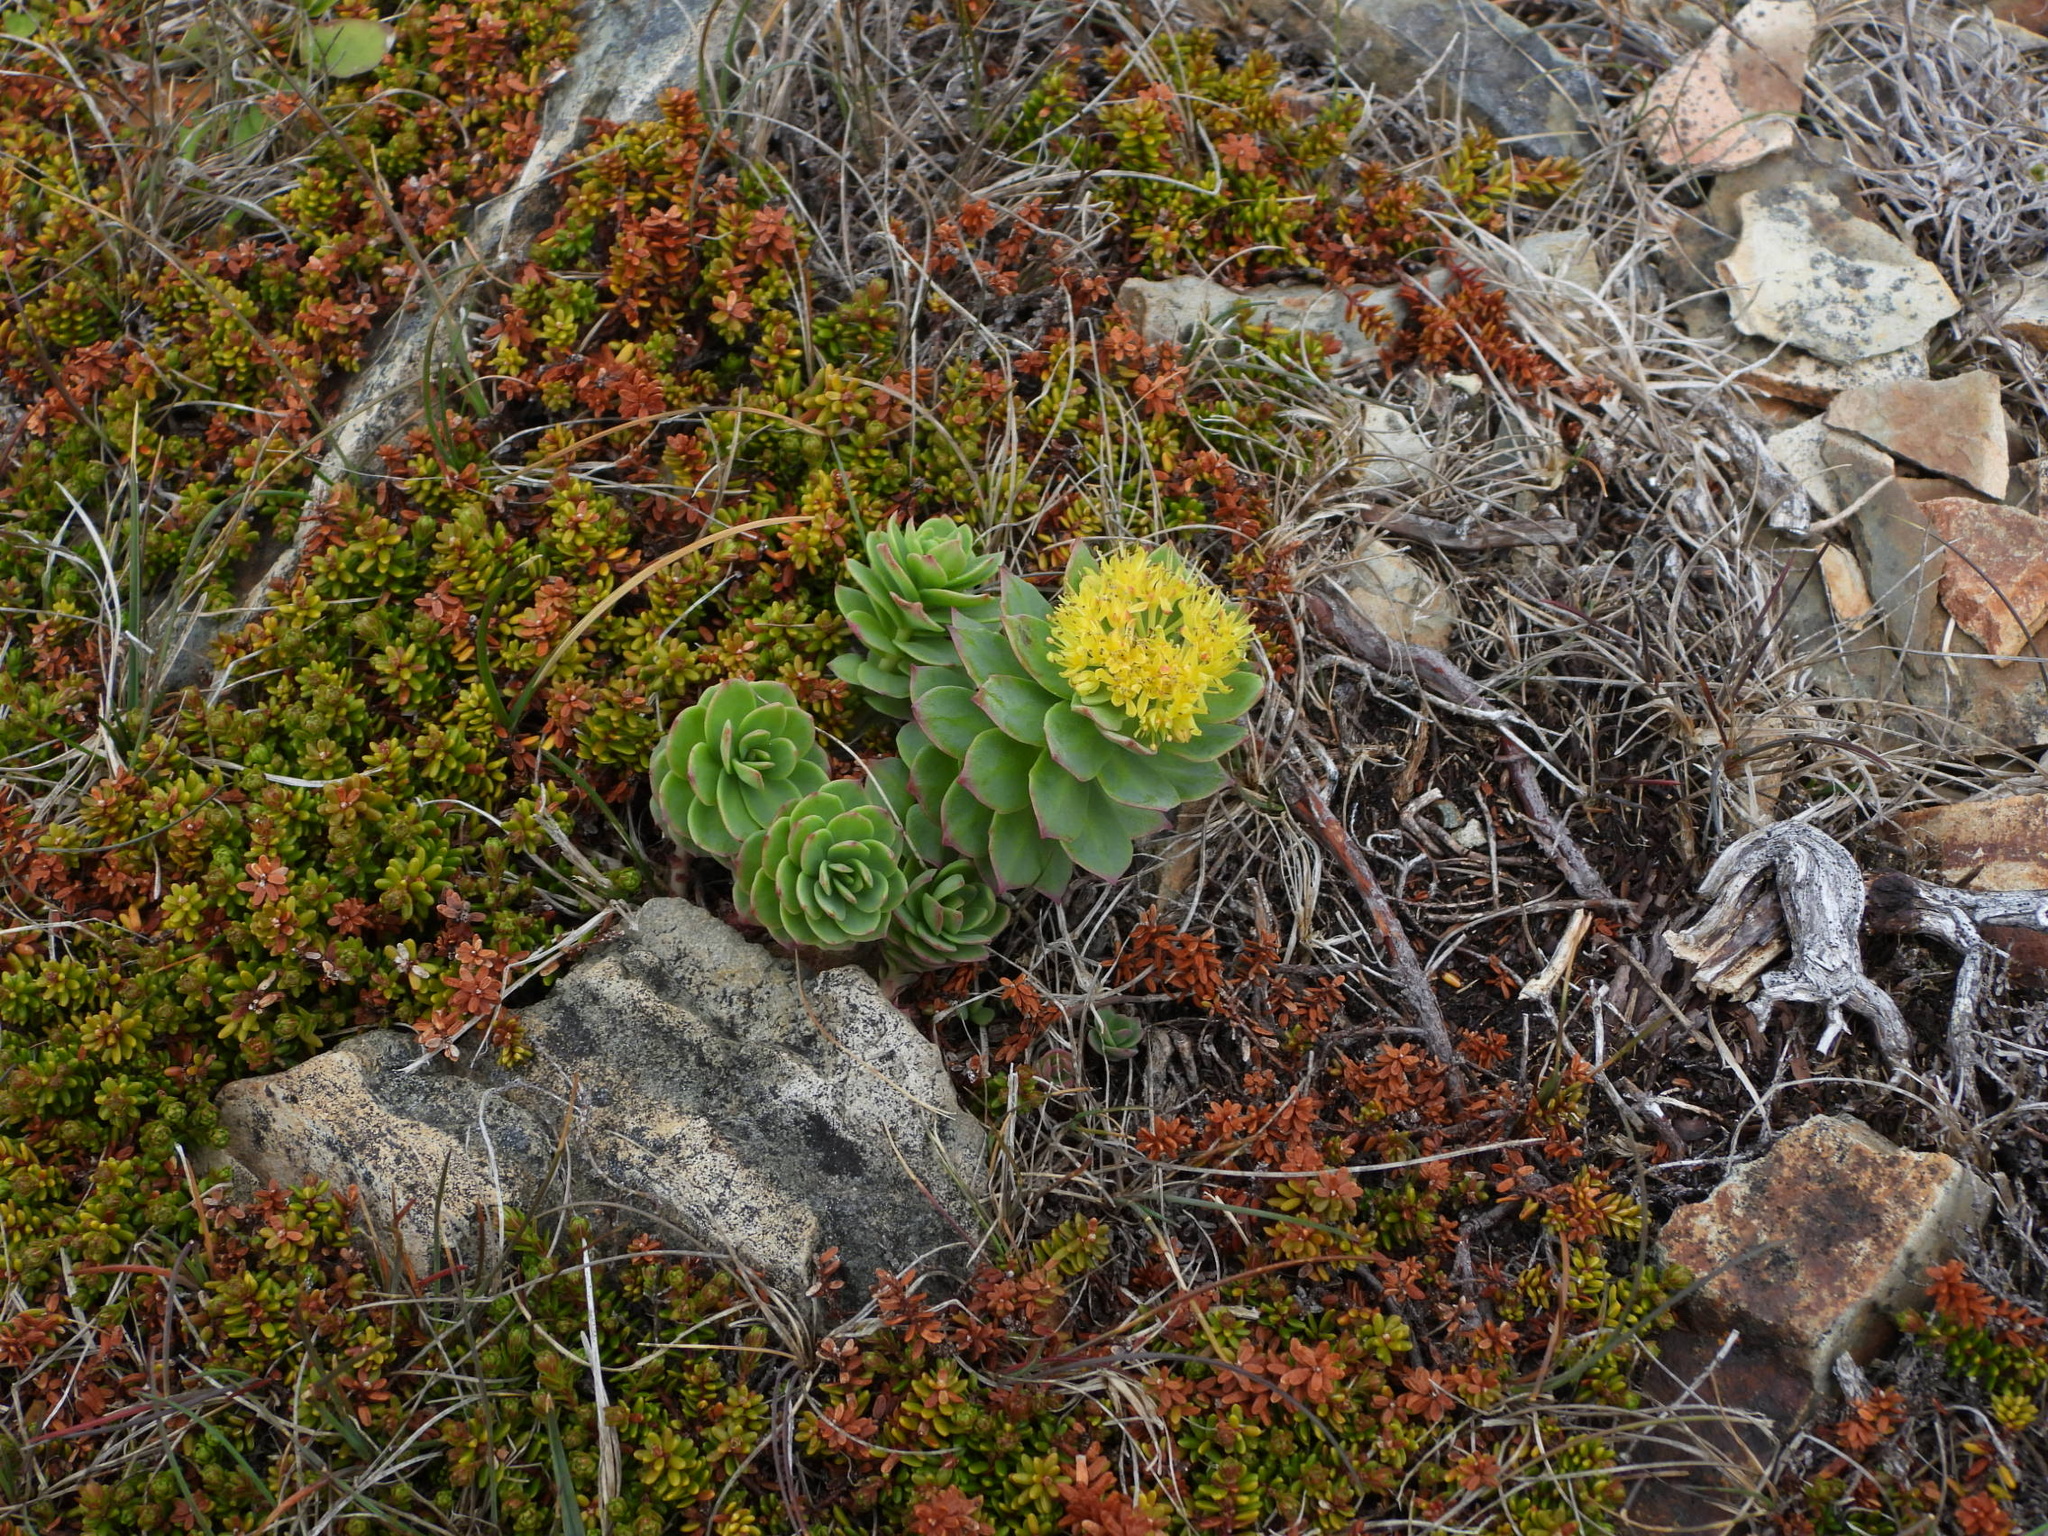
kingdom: Plantae
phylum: Tracheophyta
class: Magnoliopsida
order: Saxifragales
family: Crassulaceae
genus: Rhodiola
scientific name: Rhodiola rosea
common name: Roseroot
